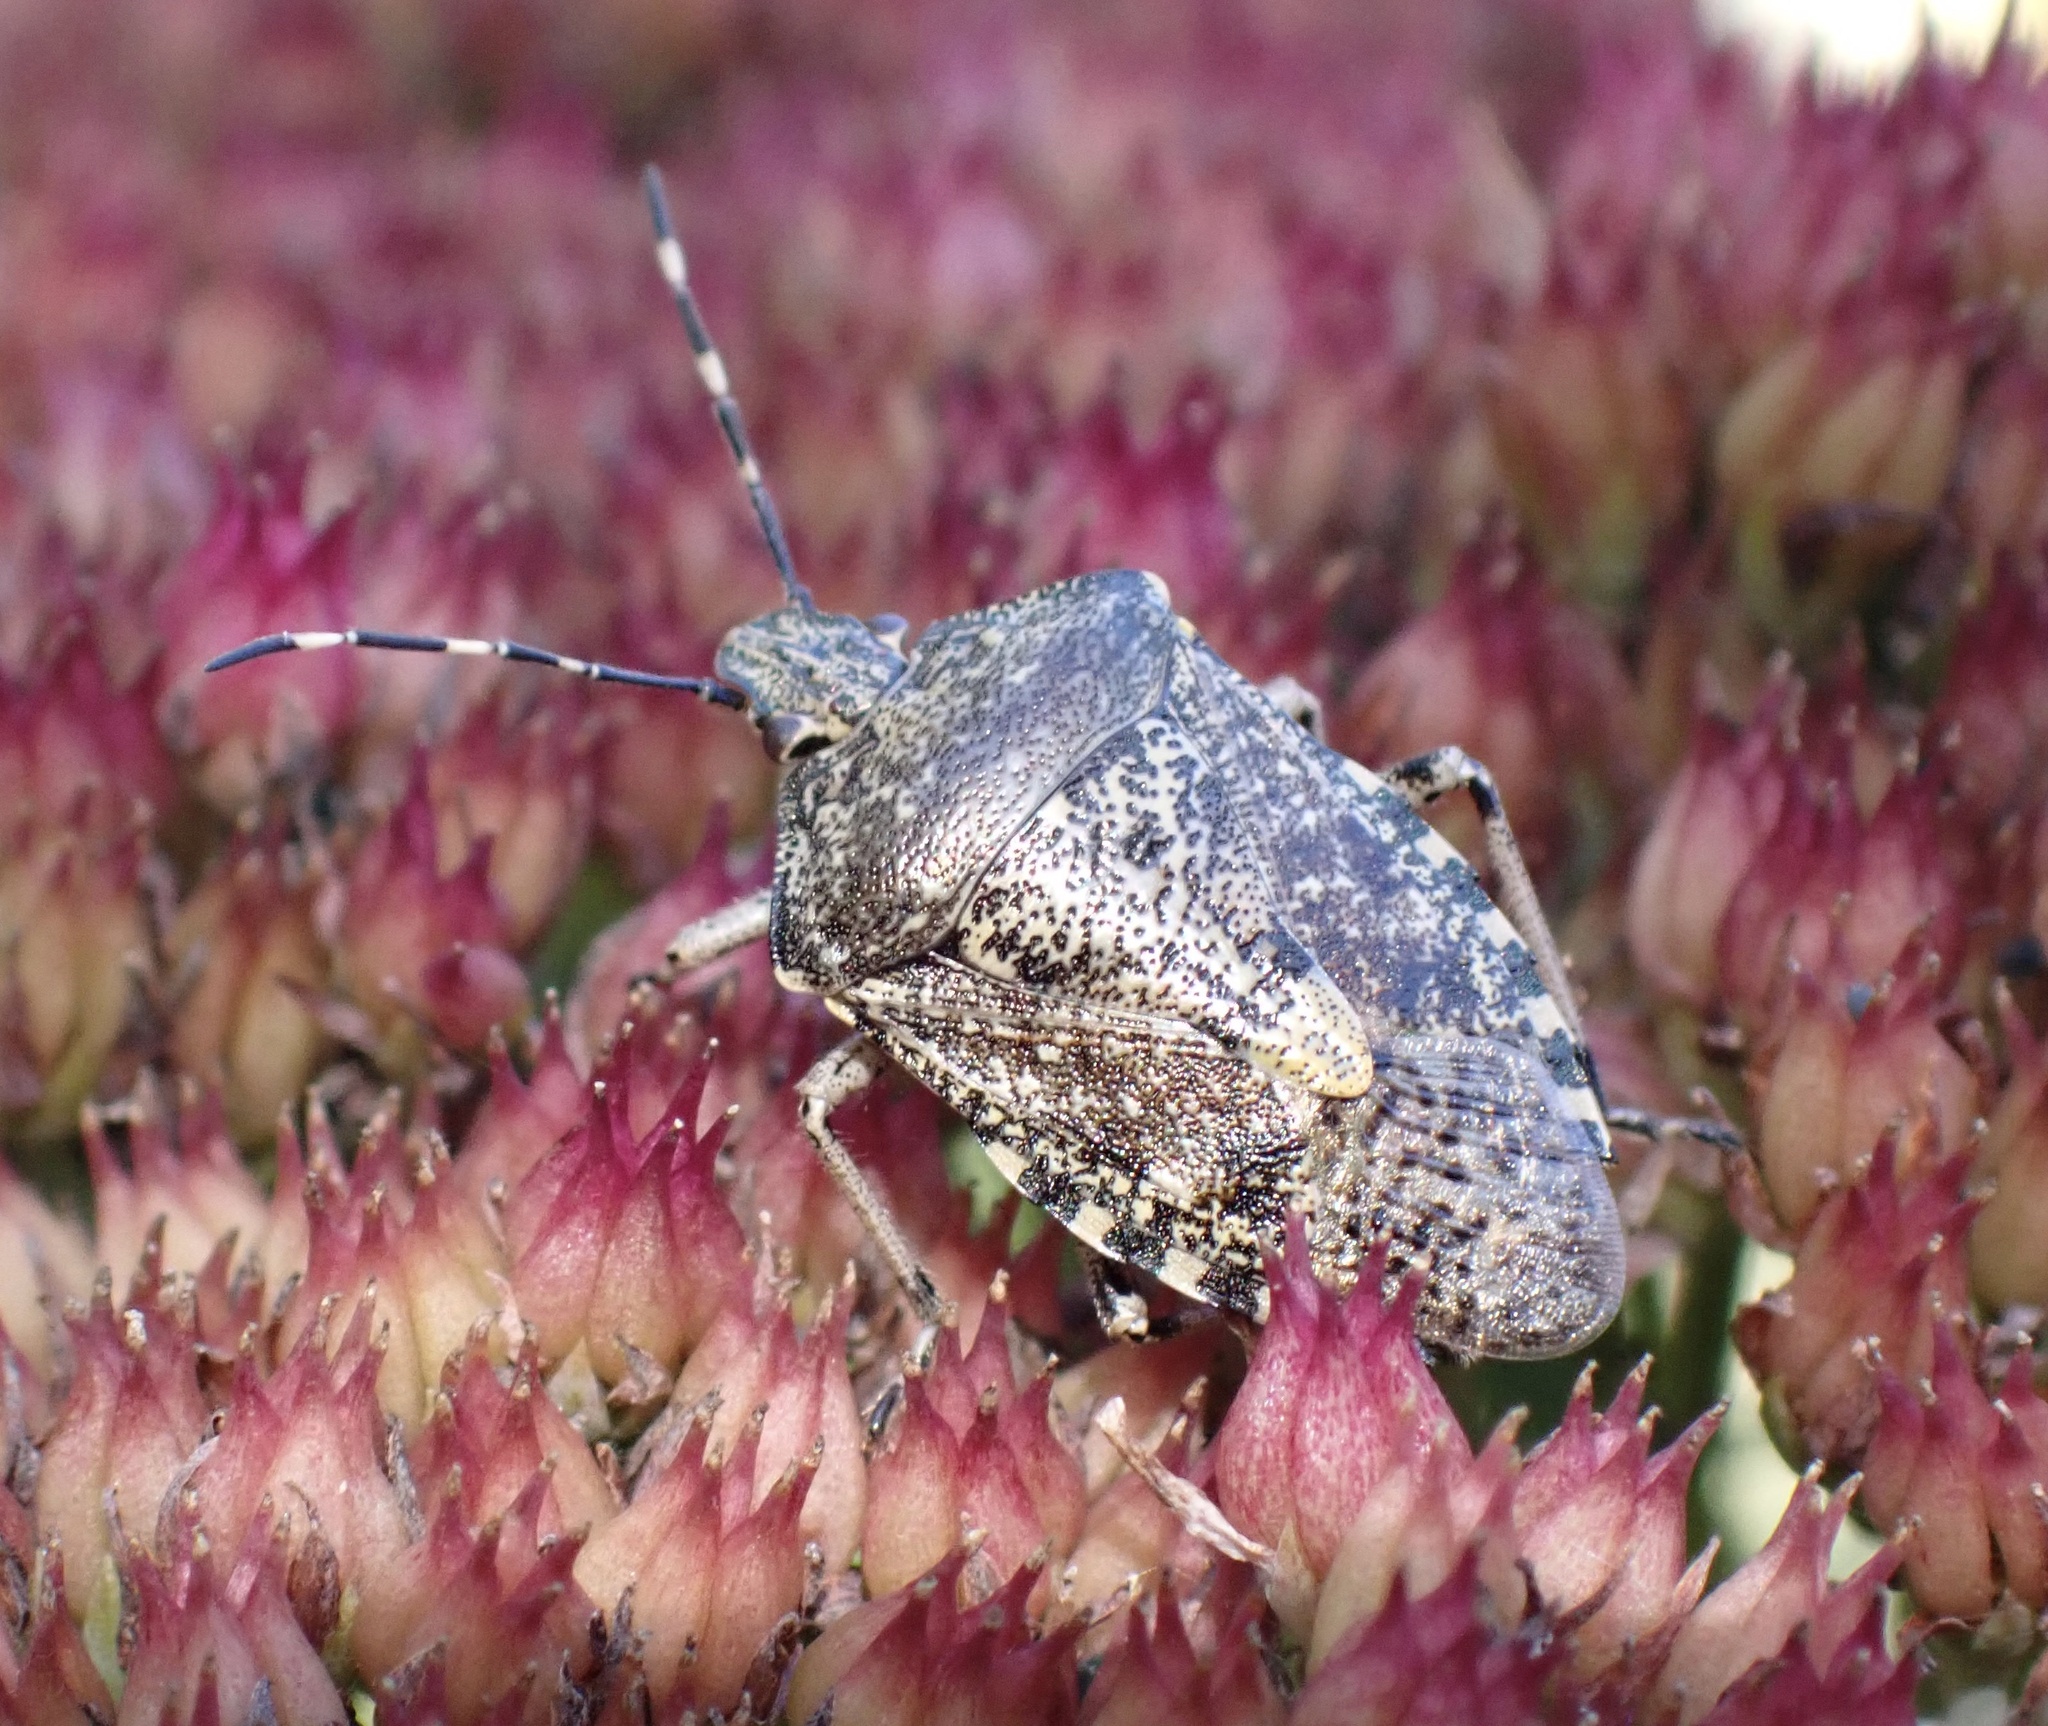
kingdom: Animalia
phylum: Arthropoda
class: Insecta
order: Hemiptera
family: Pentatomidae
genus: Rhaphigaster
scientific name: Rhaphigaster nebulosa
